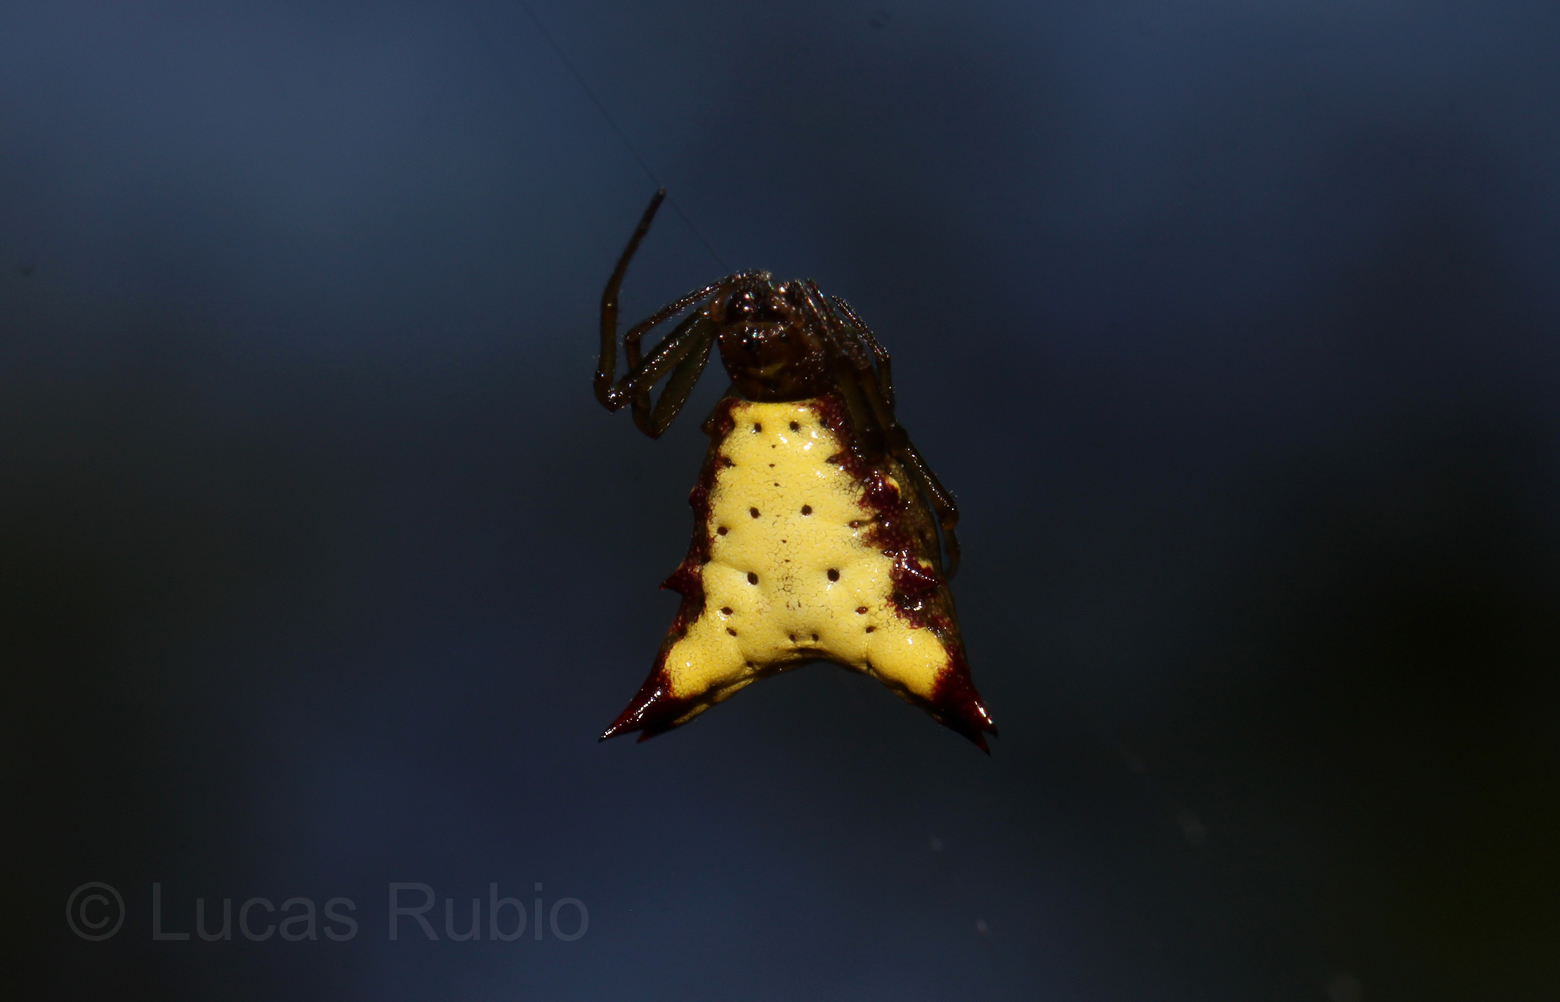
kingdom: Animalia
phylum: Arthropoda
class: Arachnida
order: Araneae
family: Araneidae
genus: Micrathena
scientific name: Micrathena furva
